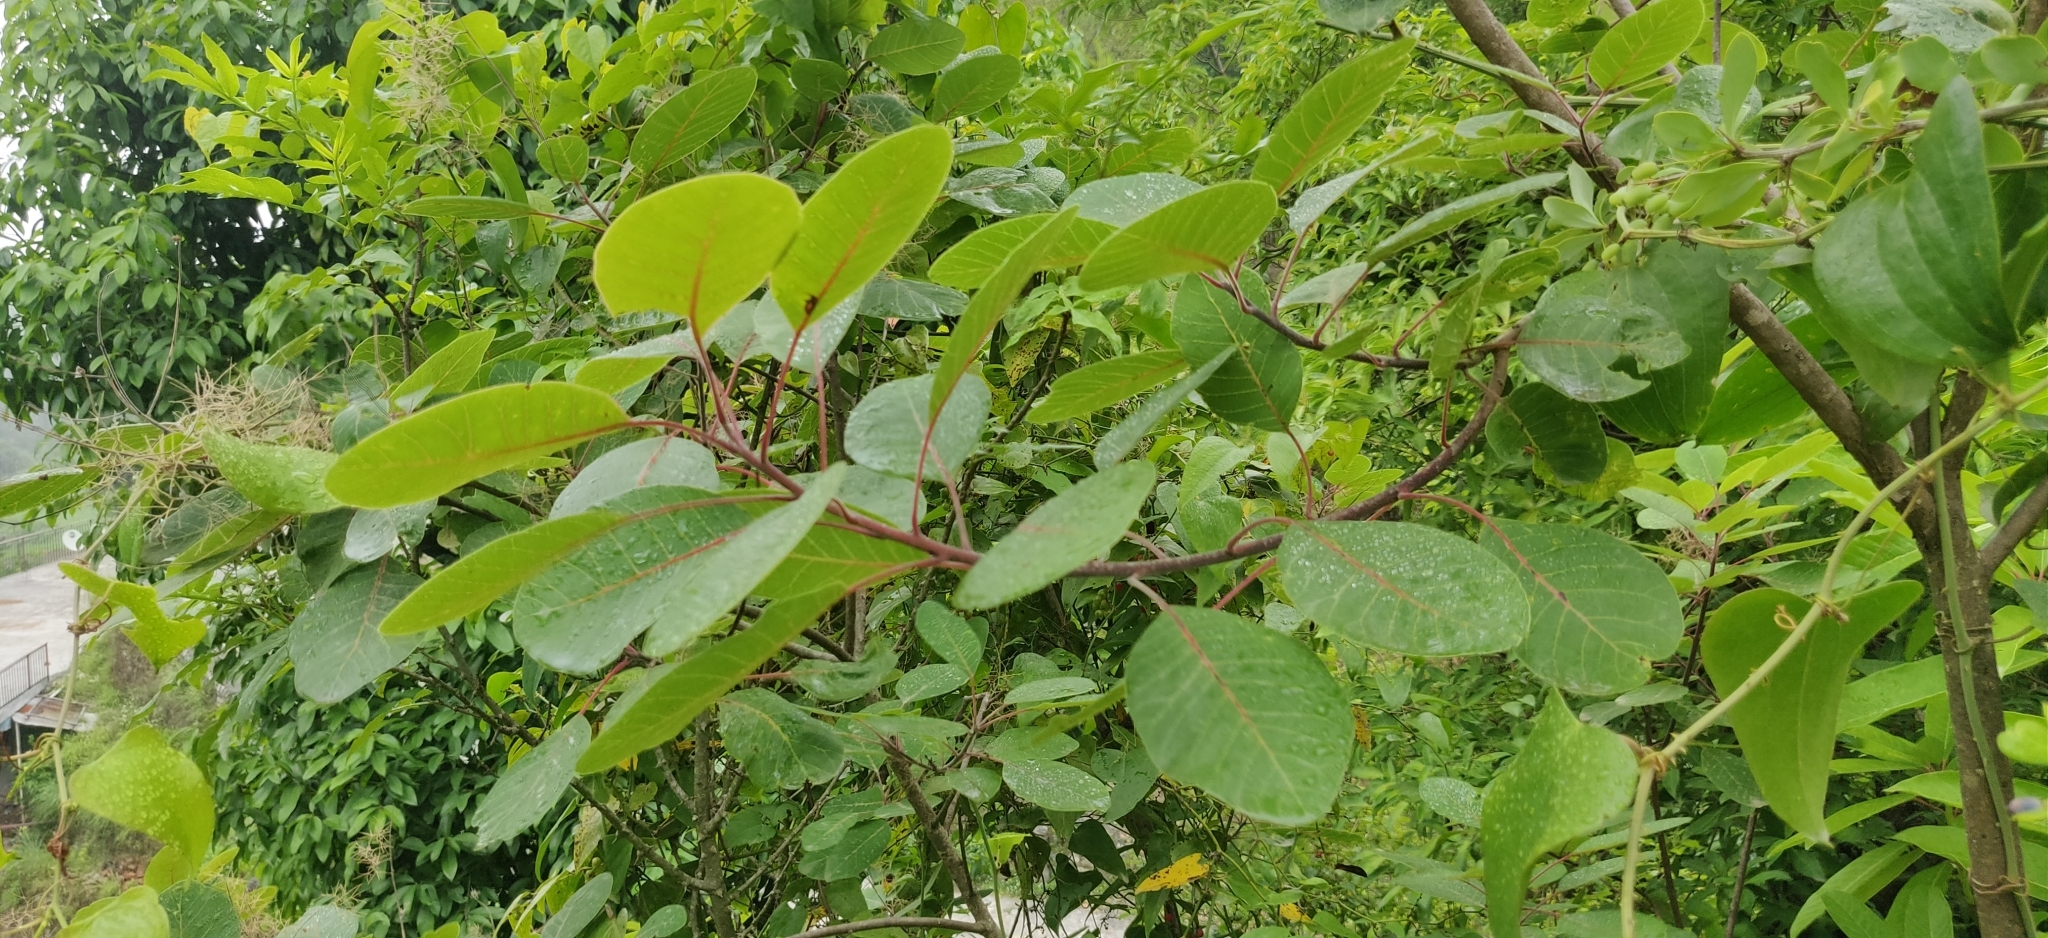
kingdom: Plantae
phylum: Tracheophyta
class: Magnoliopsida
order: Sapindales
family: Anacardiaceae
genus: Cotinus
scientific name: Cotinus coggygria
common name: Smoke-tree
